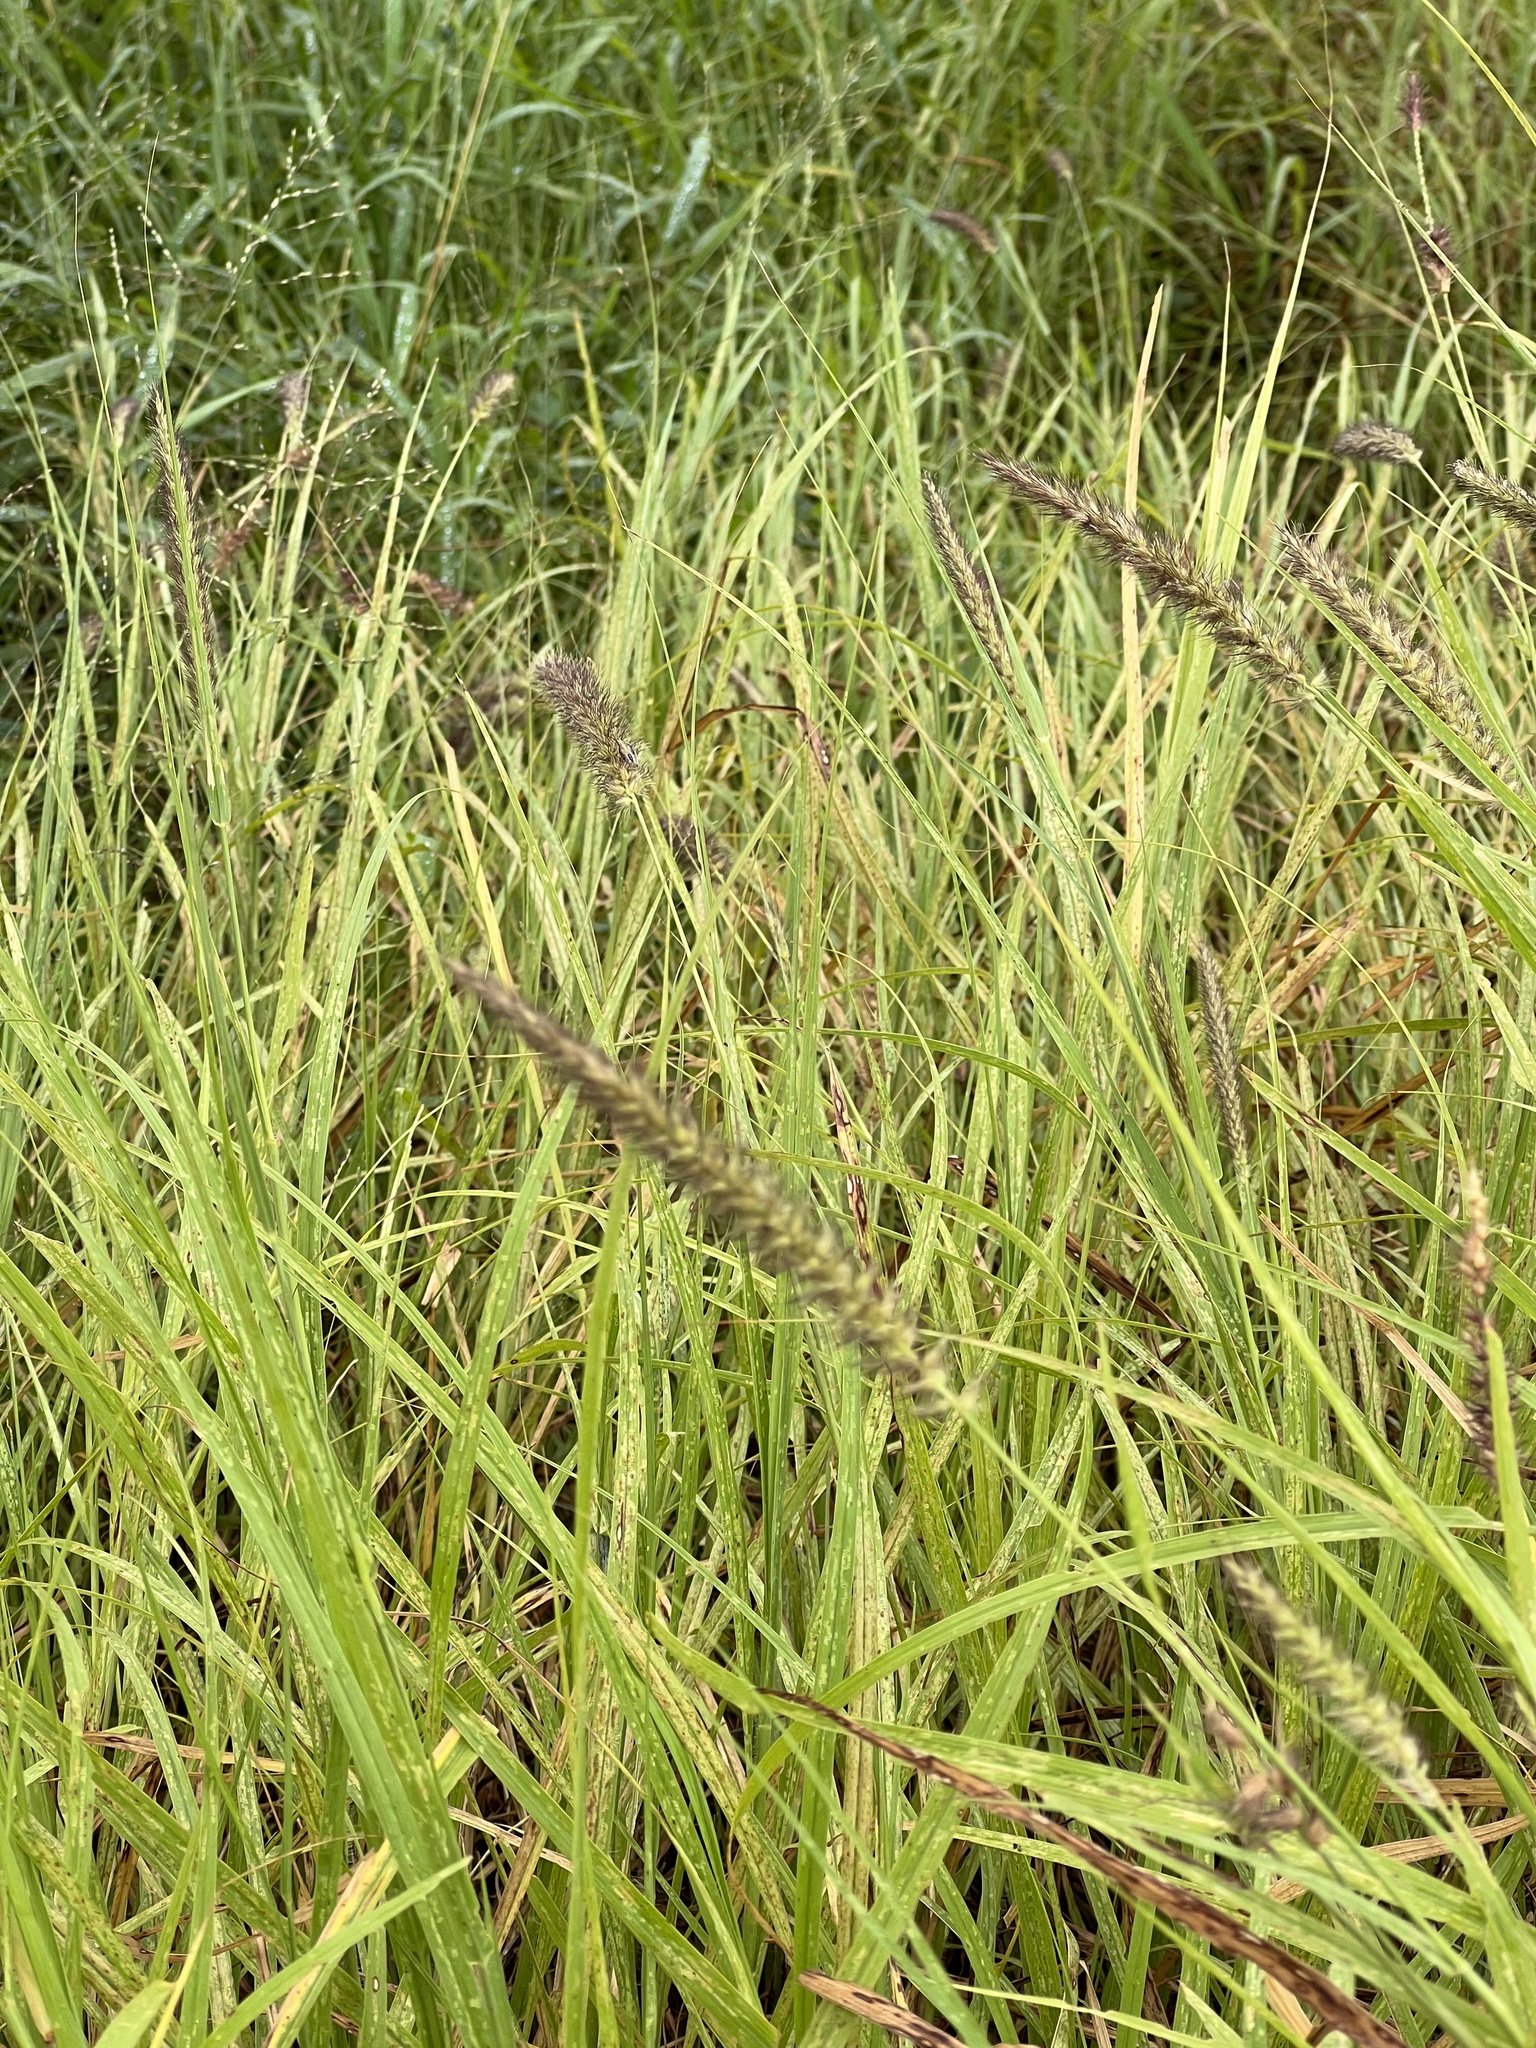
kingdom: Plantae
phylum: Tracheophyta
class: Liliopsida
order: Poales
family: Poaceae
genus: Cenchrus
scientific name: Cenchrus ciliaris
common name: Buffelgrass
